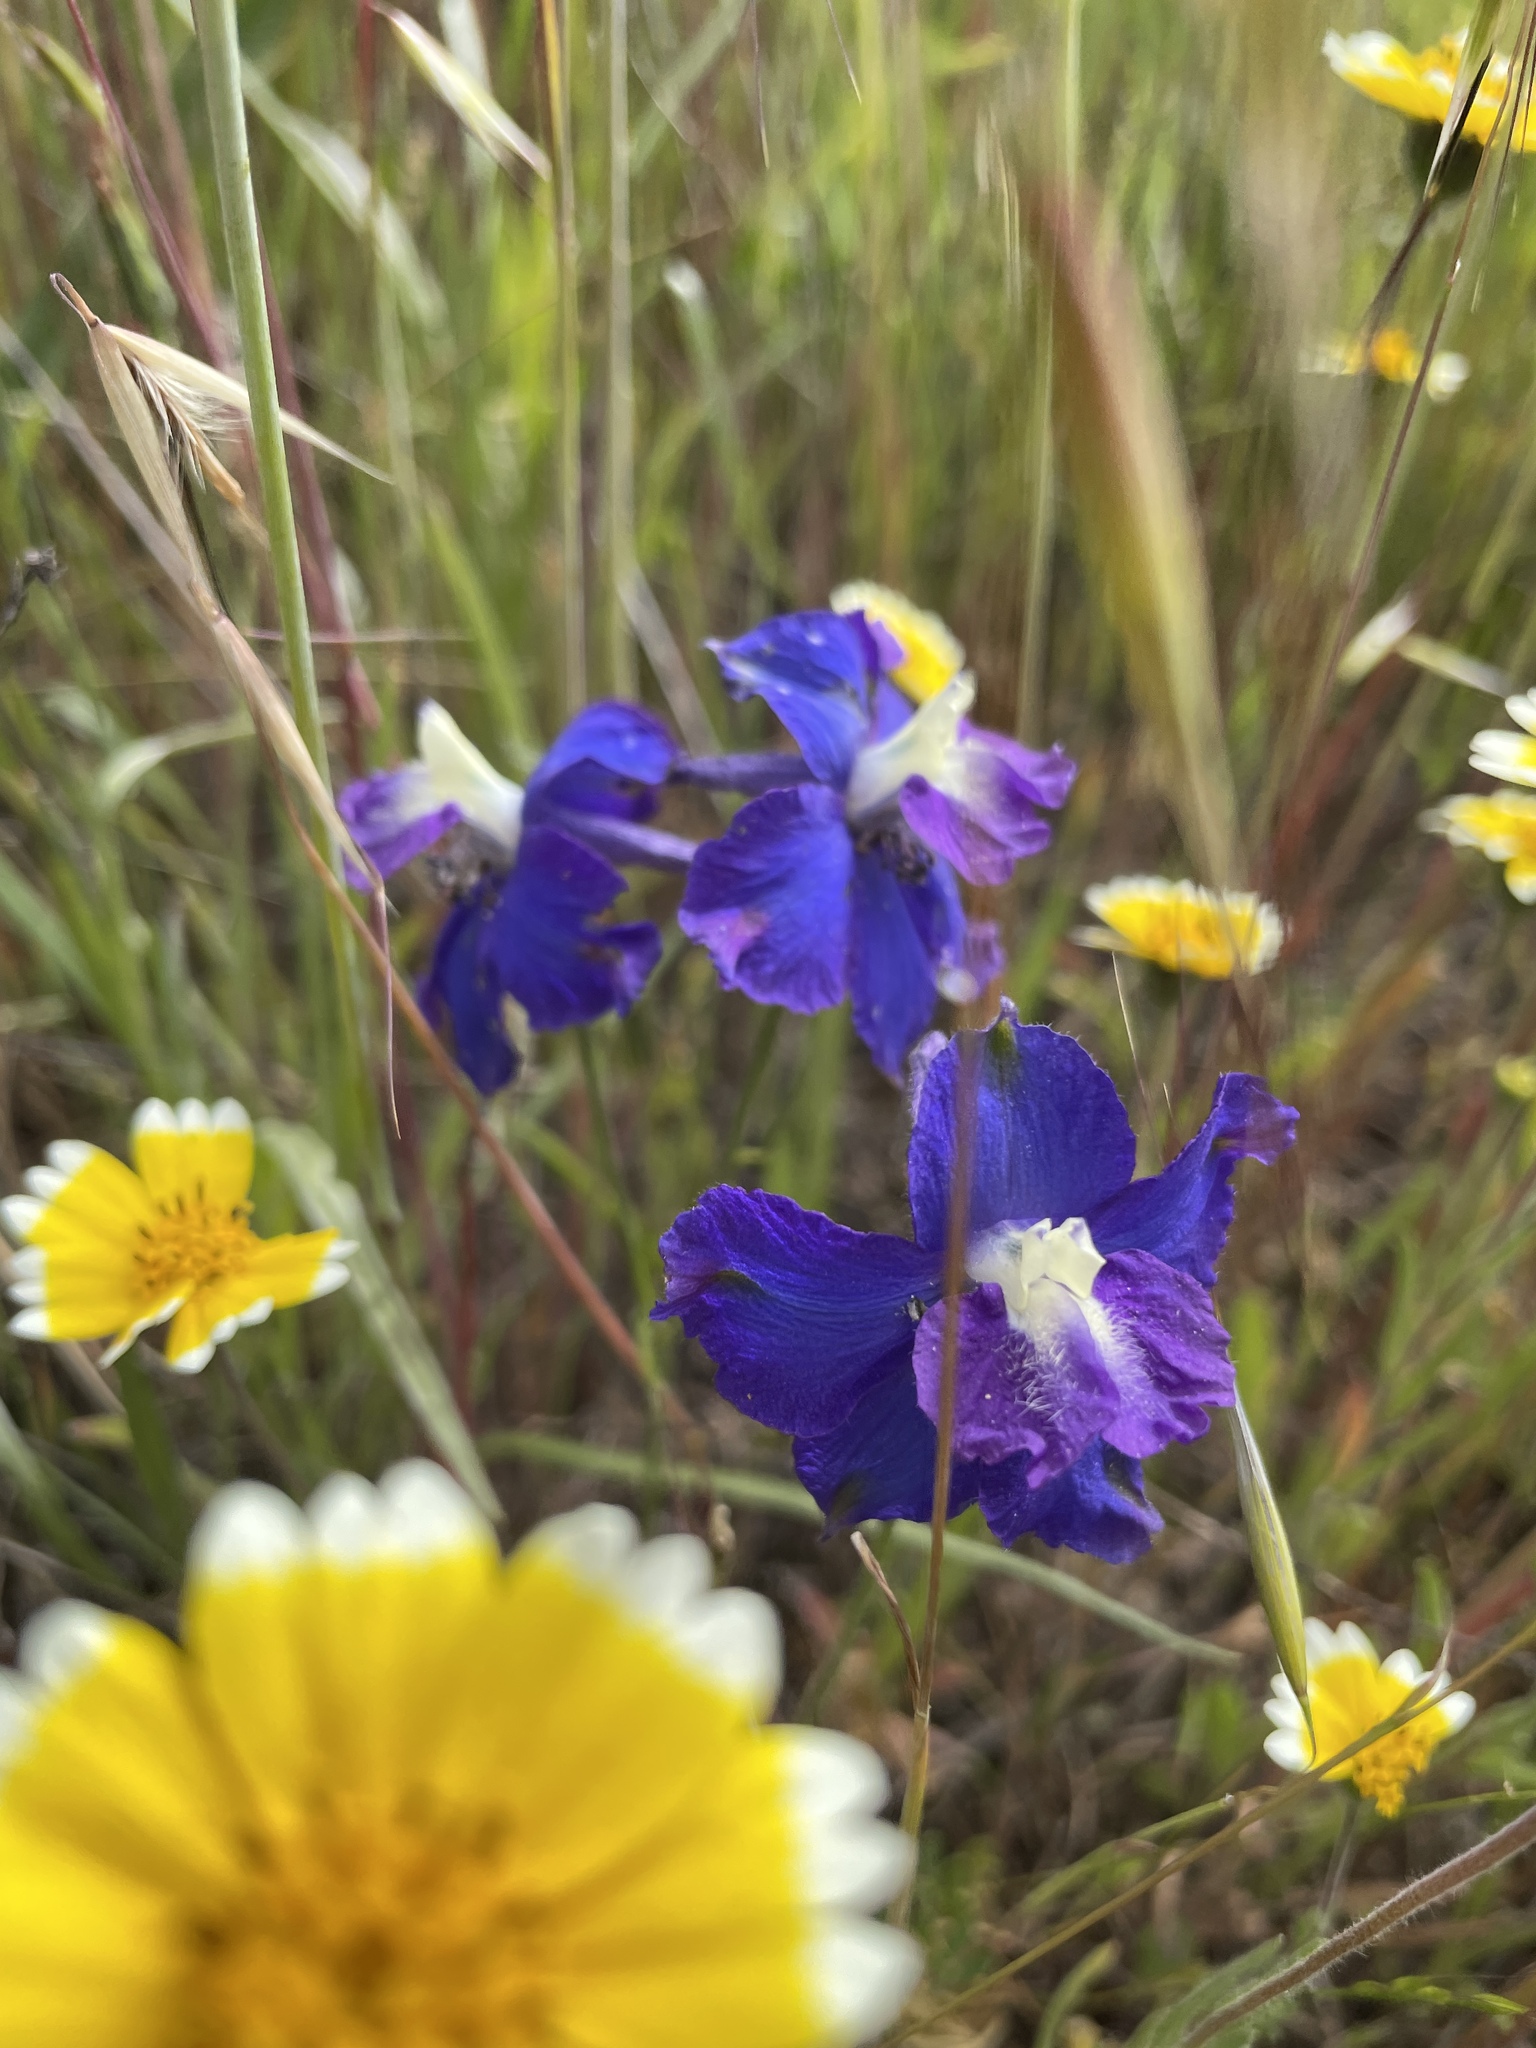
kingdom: Plantae
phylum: Tracheophyta
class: Magnoliopsida
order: Ranunculales
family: Ranunculaceae
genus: Delphinium
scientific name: Delphinium variegatum
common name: Royal larkspur
